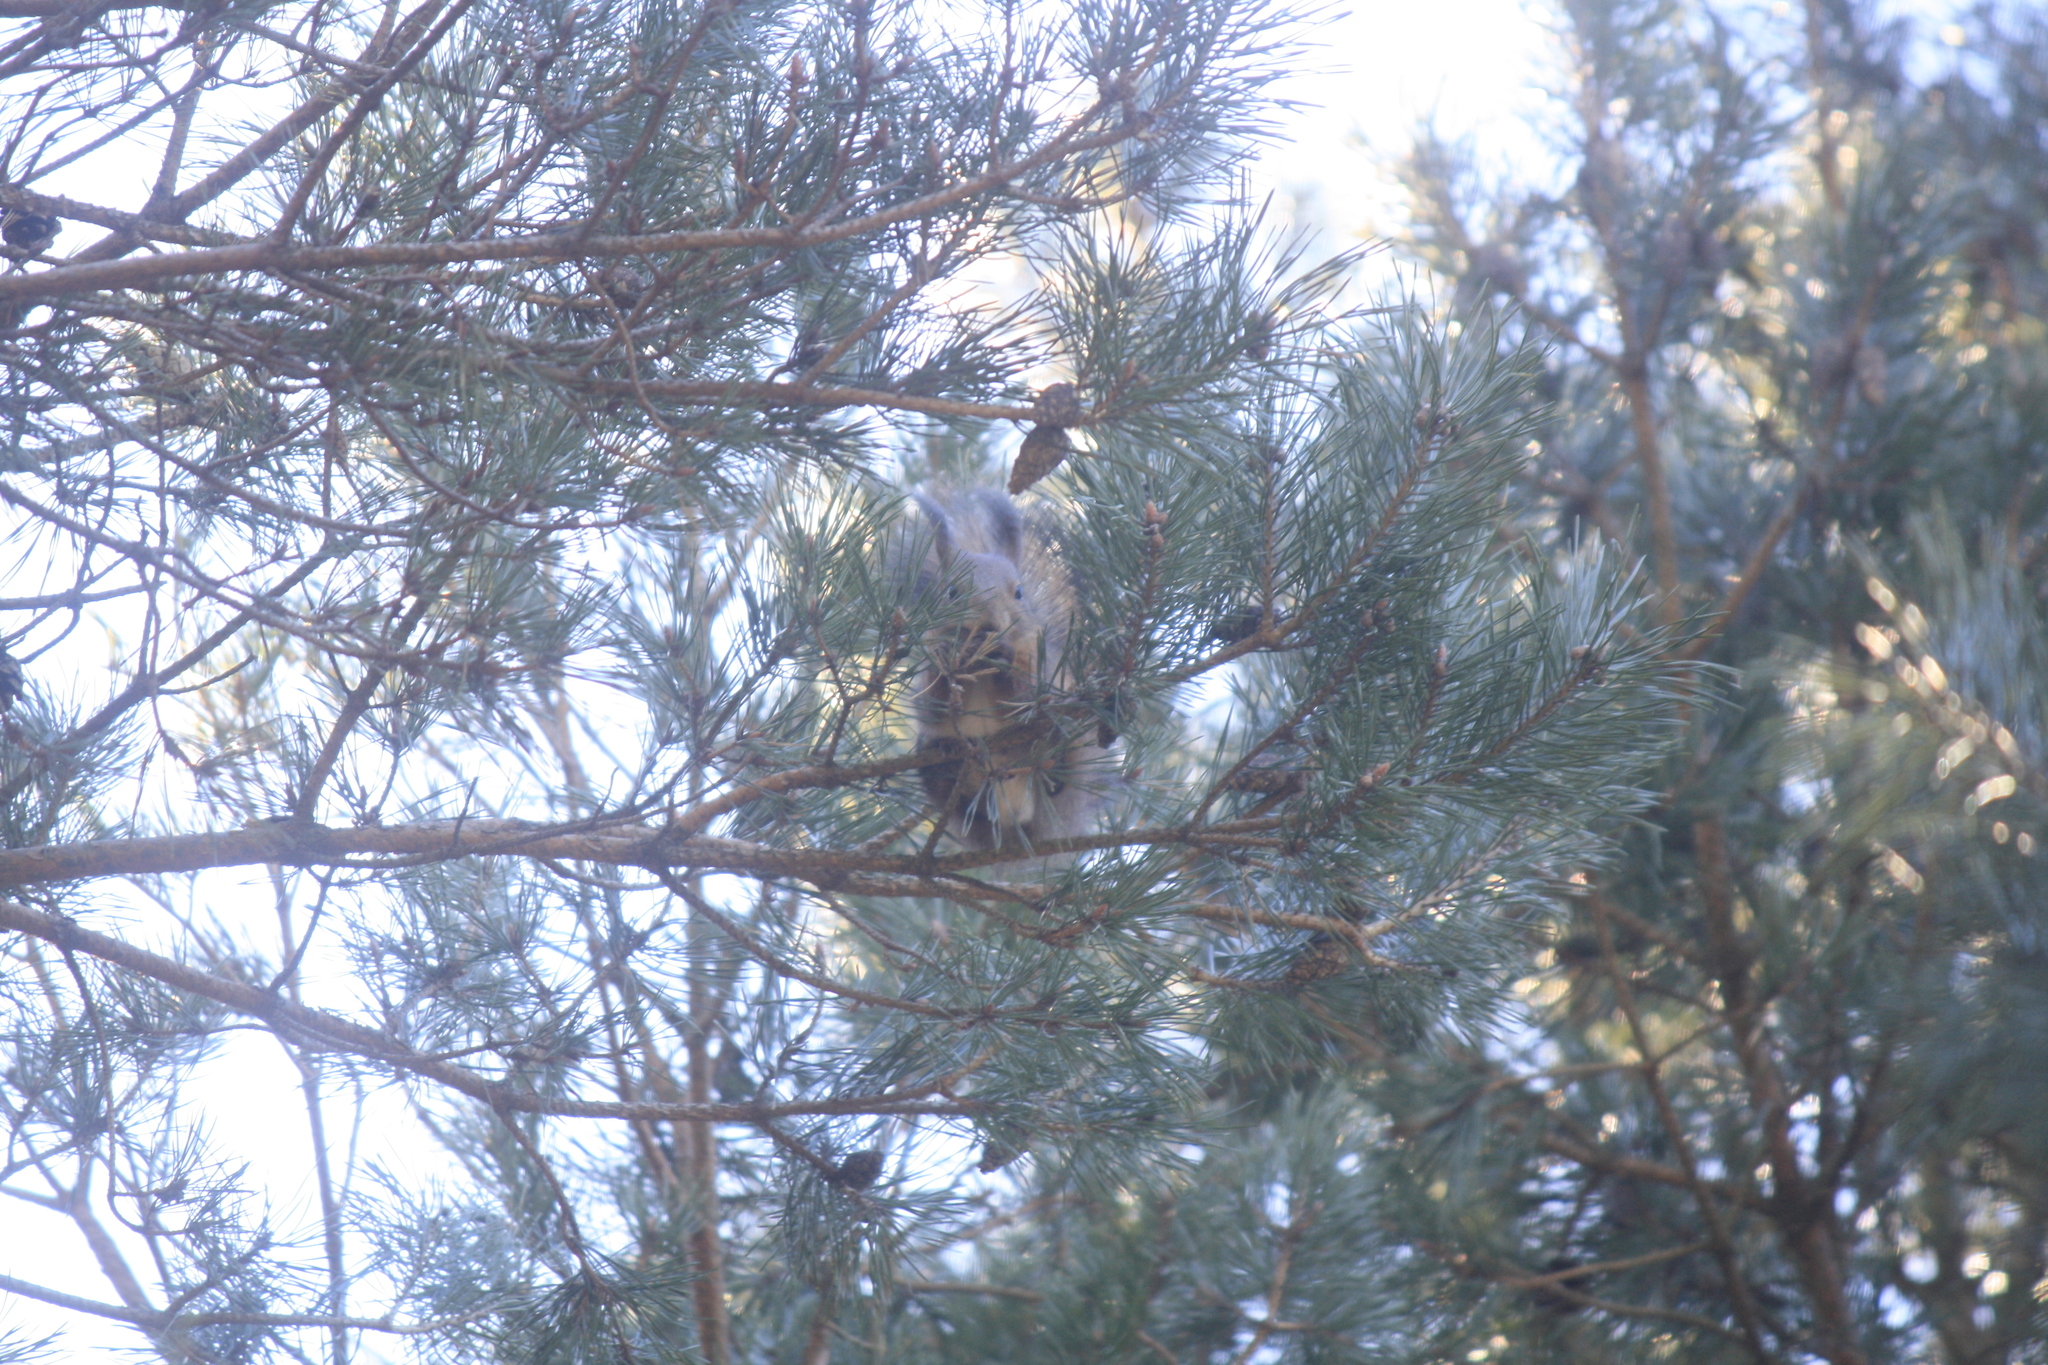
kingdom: Animalia
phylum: Chordata
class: Mammalia
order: Rodentia
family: Sciuridae
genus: Sciurus
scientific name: Sciurus vulgaris
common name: Eurasian red squirrel
